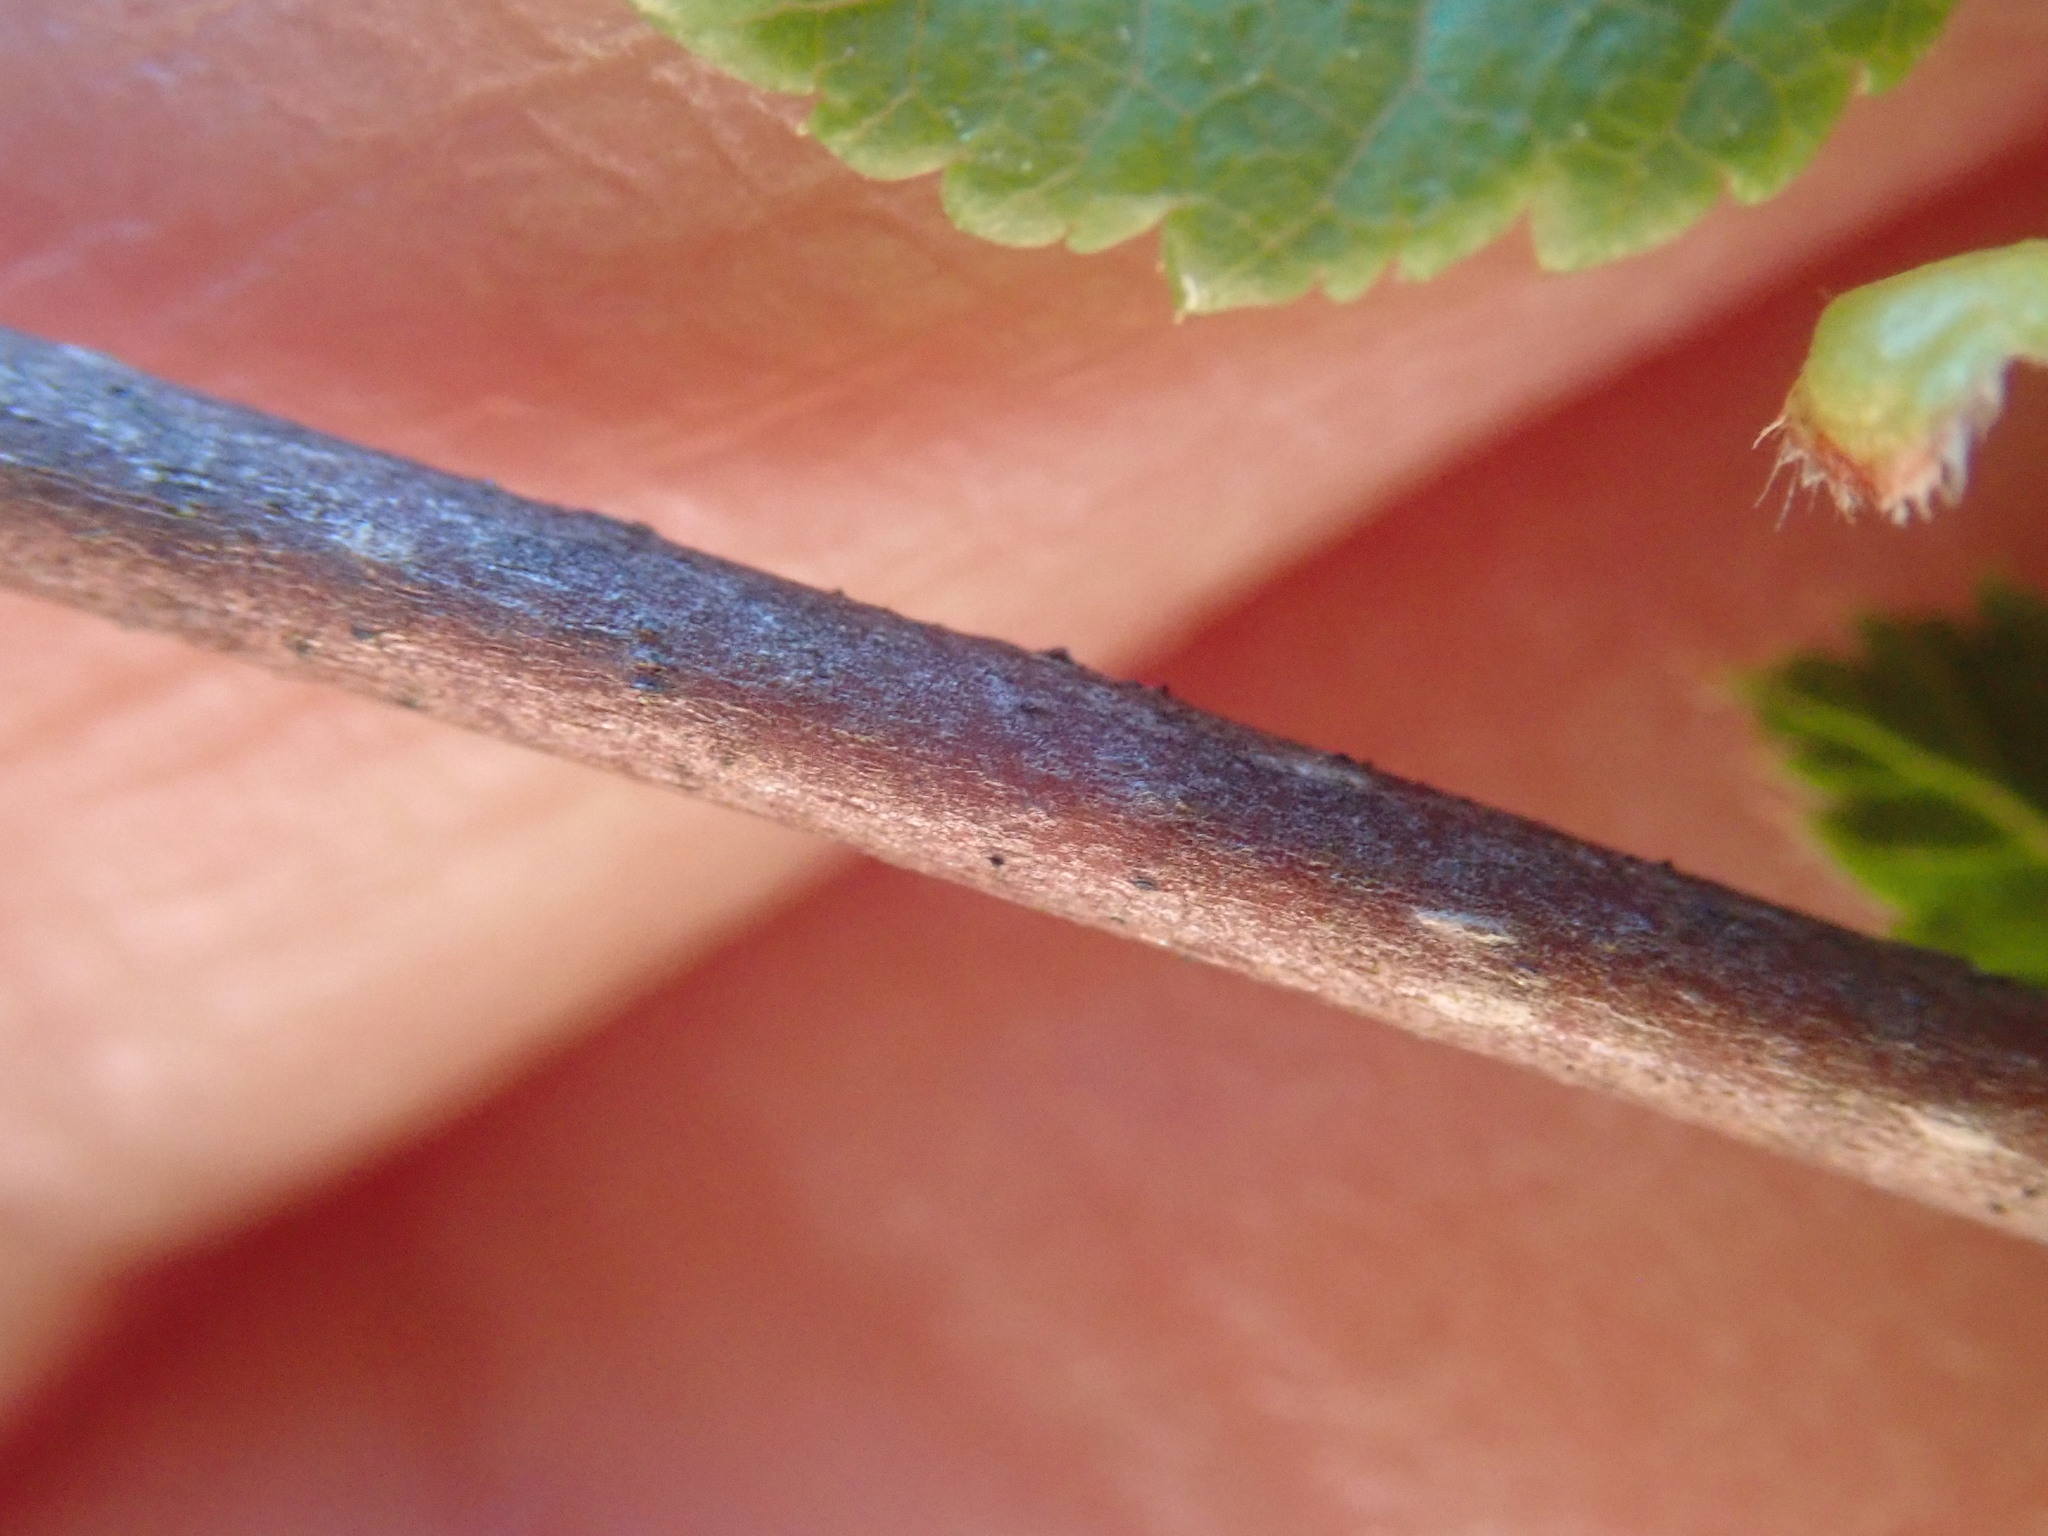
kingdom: Plantae
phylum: Tracheophyta
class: Magnoliopsida
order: Fagales
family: Betulaceae
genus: Corylus
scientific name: Corylus americana
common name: American hazel
